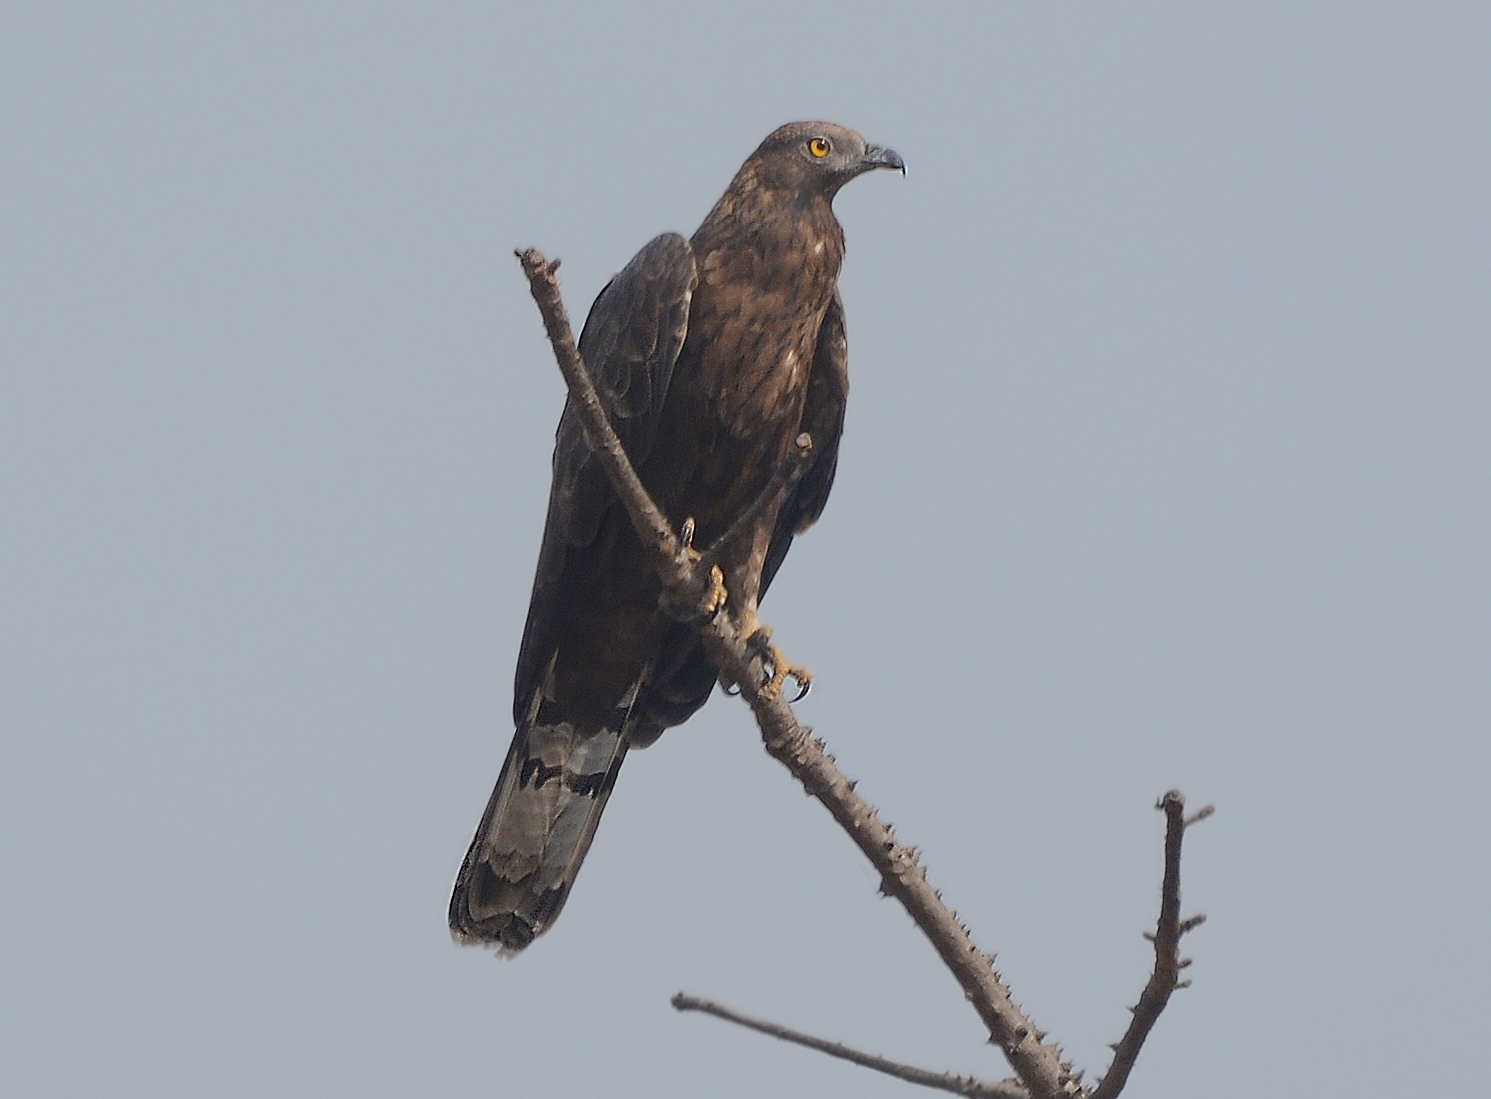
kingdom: Animalia
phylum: Chordata
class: Aves
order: Accipitriformes
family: Accipitridae
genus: Pernis
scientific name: Pernis ptilorhynchus
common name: Crested honey buzzard
